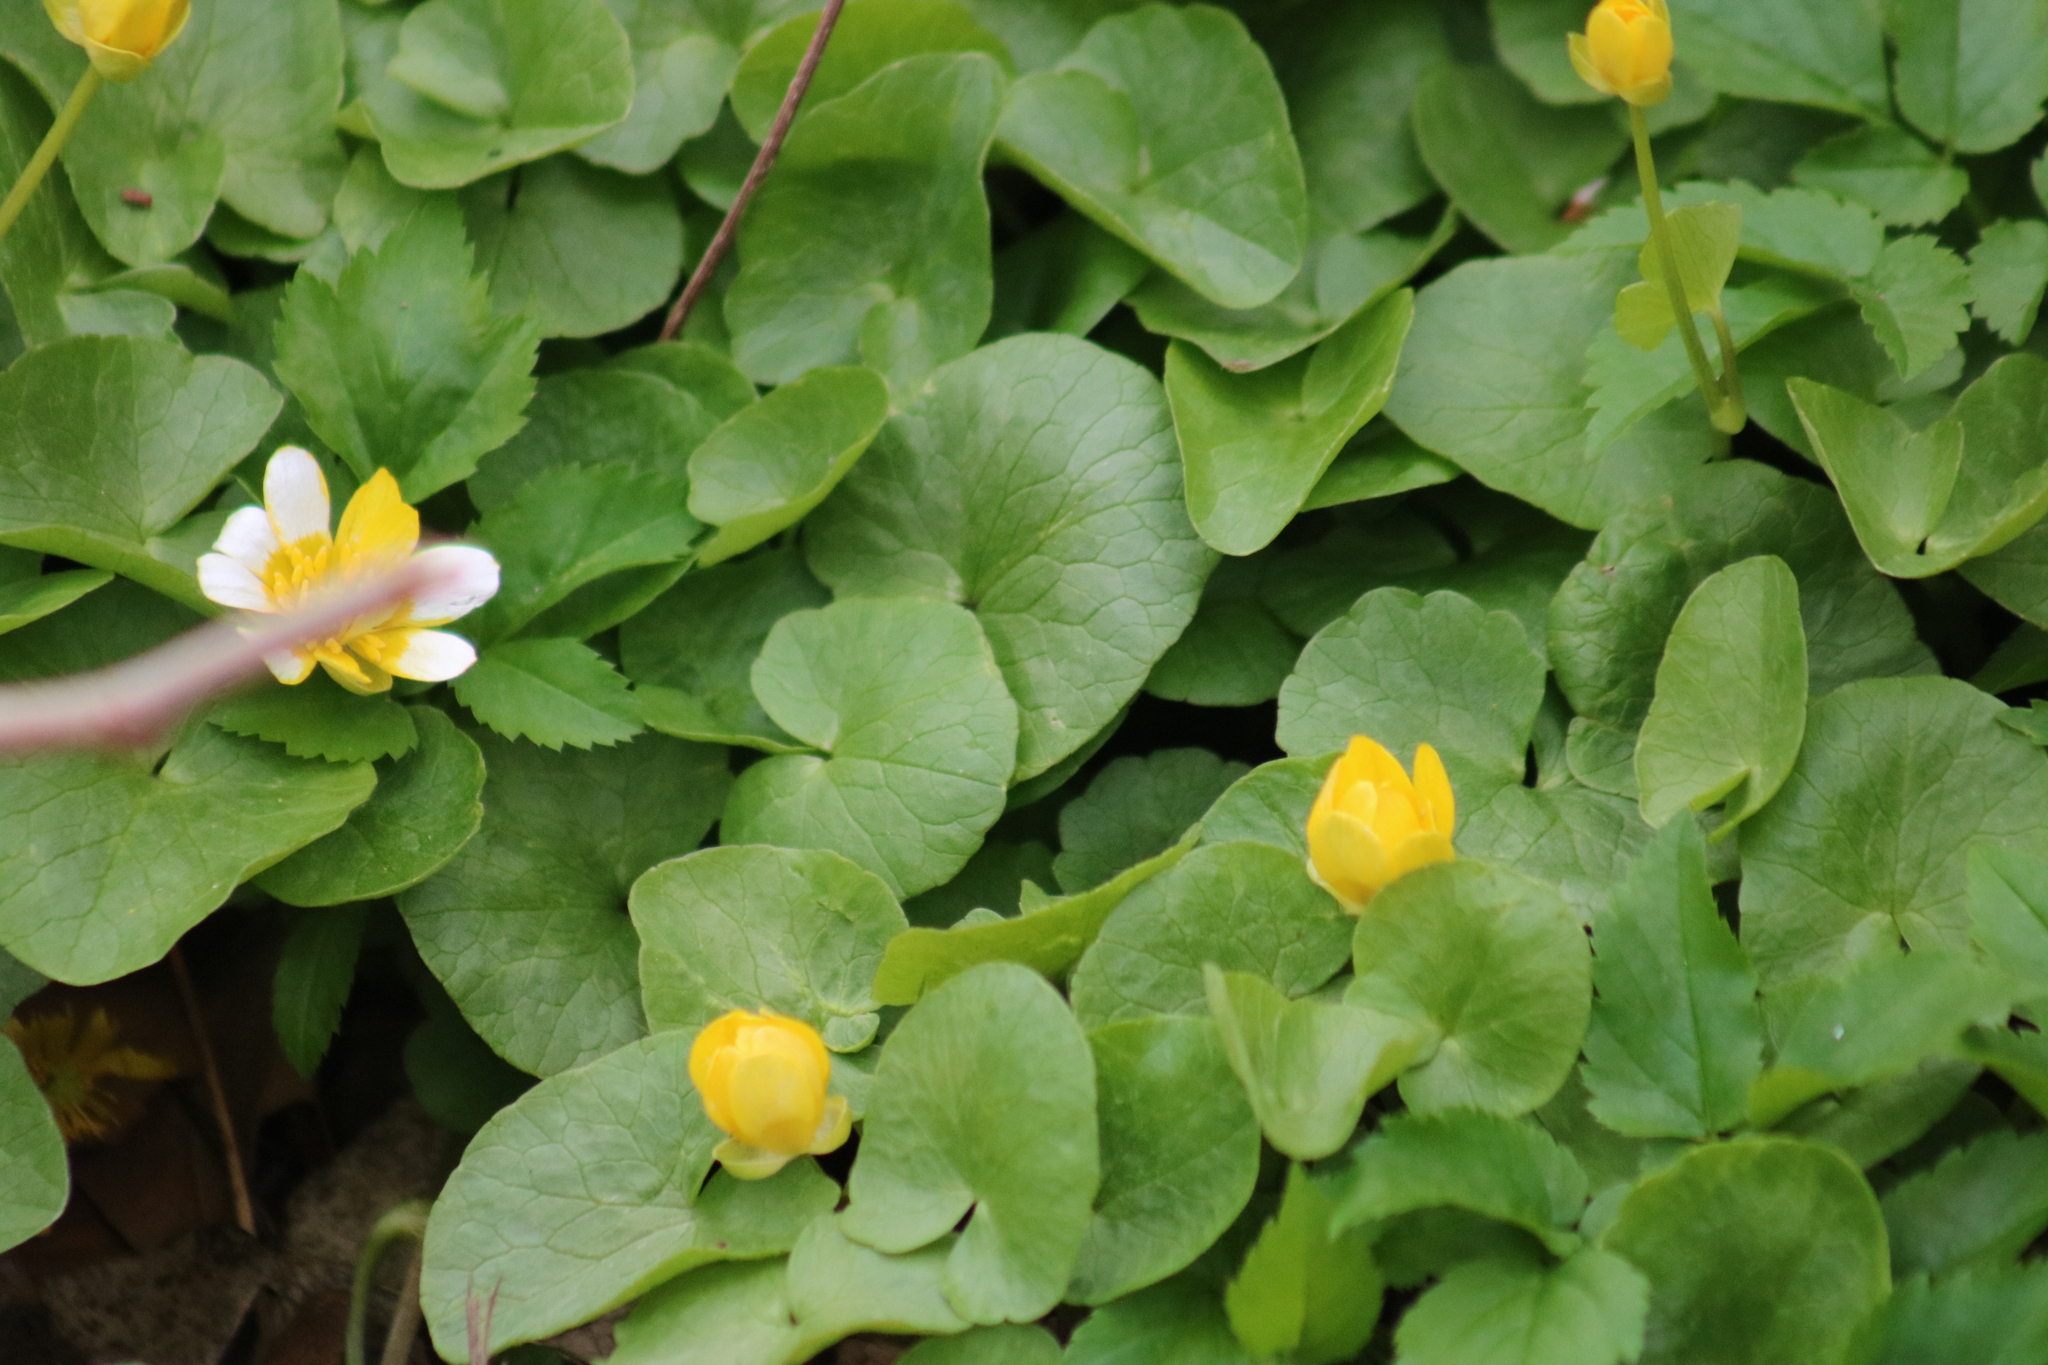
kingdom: Plantae
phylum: Tracheophyta
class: Magnoliopsida
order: Ranunculales
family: Ranunculaceae
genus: Ficaria
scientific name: Ficaria verna
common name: Lesser celandine
